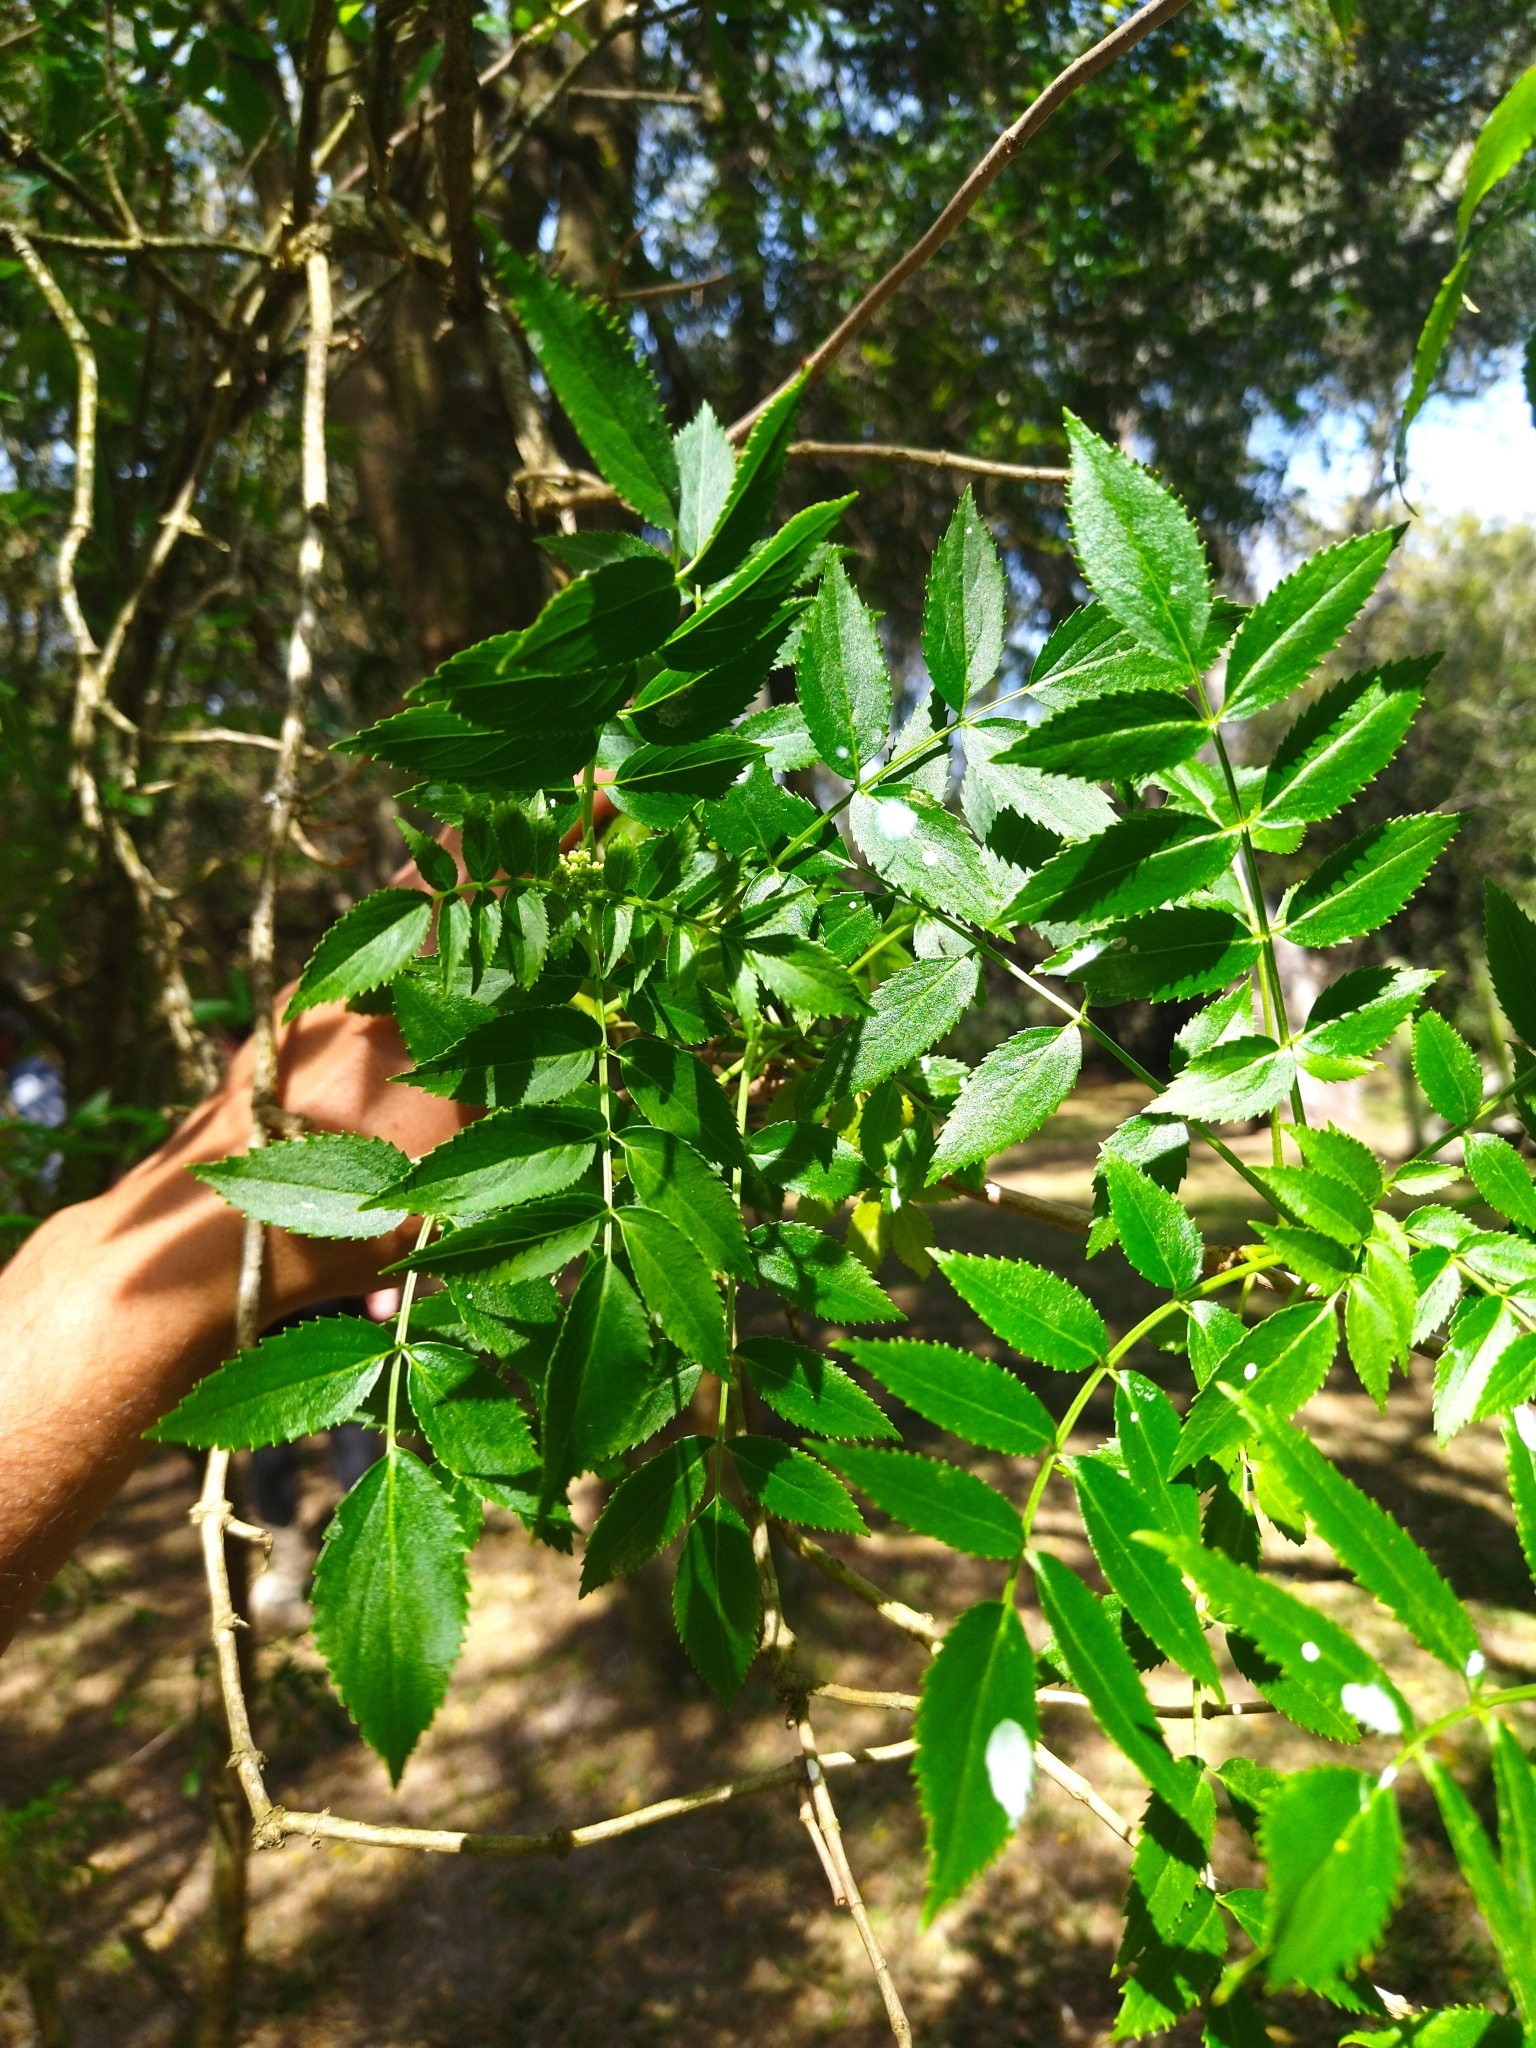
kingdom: Plantae
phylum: Tracheophyta
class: Magnoliopsida
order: Dipsacales
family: Viburnaceae
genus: Sambucus
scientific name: Sambucus australis
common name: Southern elder
